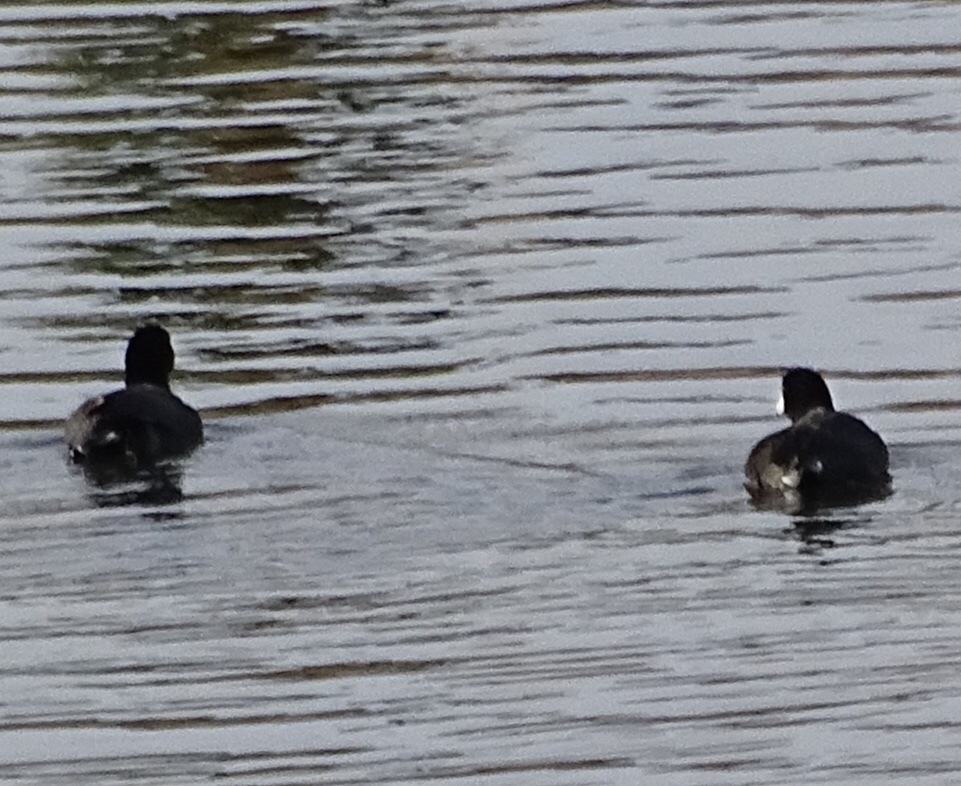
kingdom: Animalia
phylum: Chordata
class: Aves
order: Gruiformes
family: Rallidae
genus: Fulica
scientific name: Fulica americana
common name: American coot
